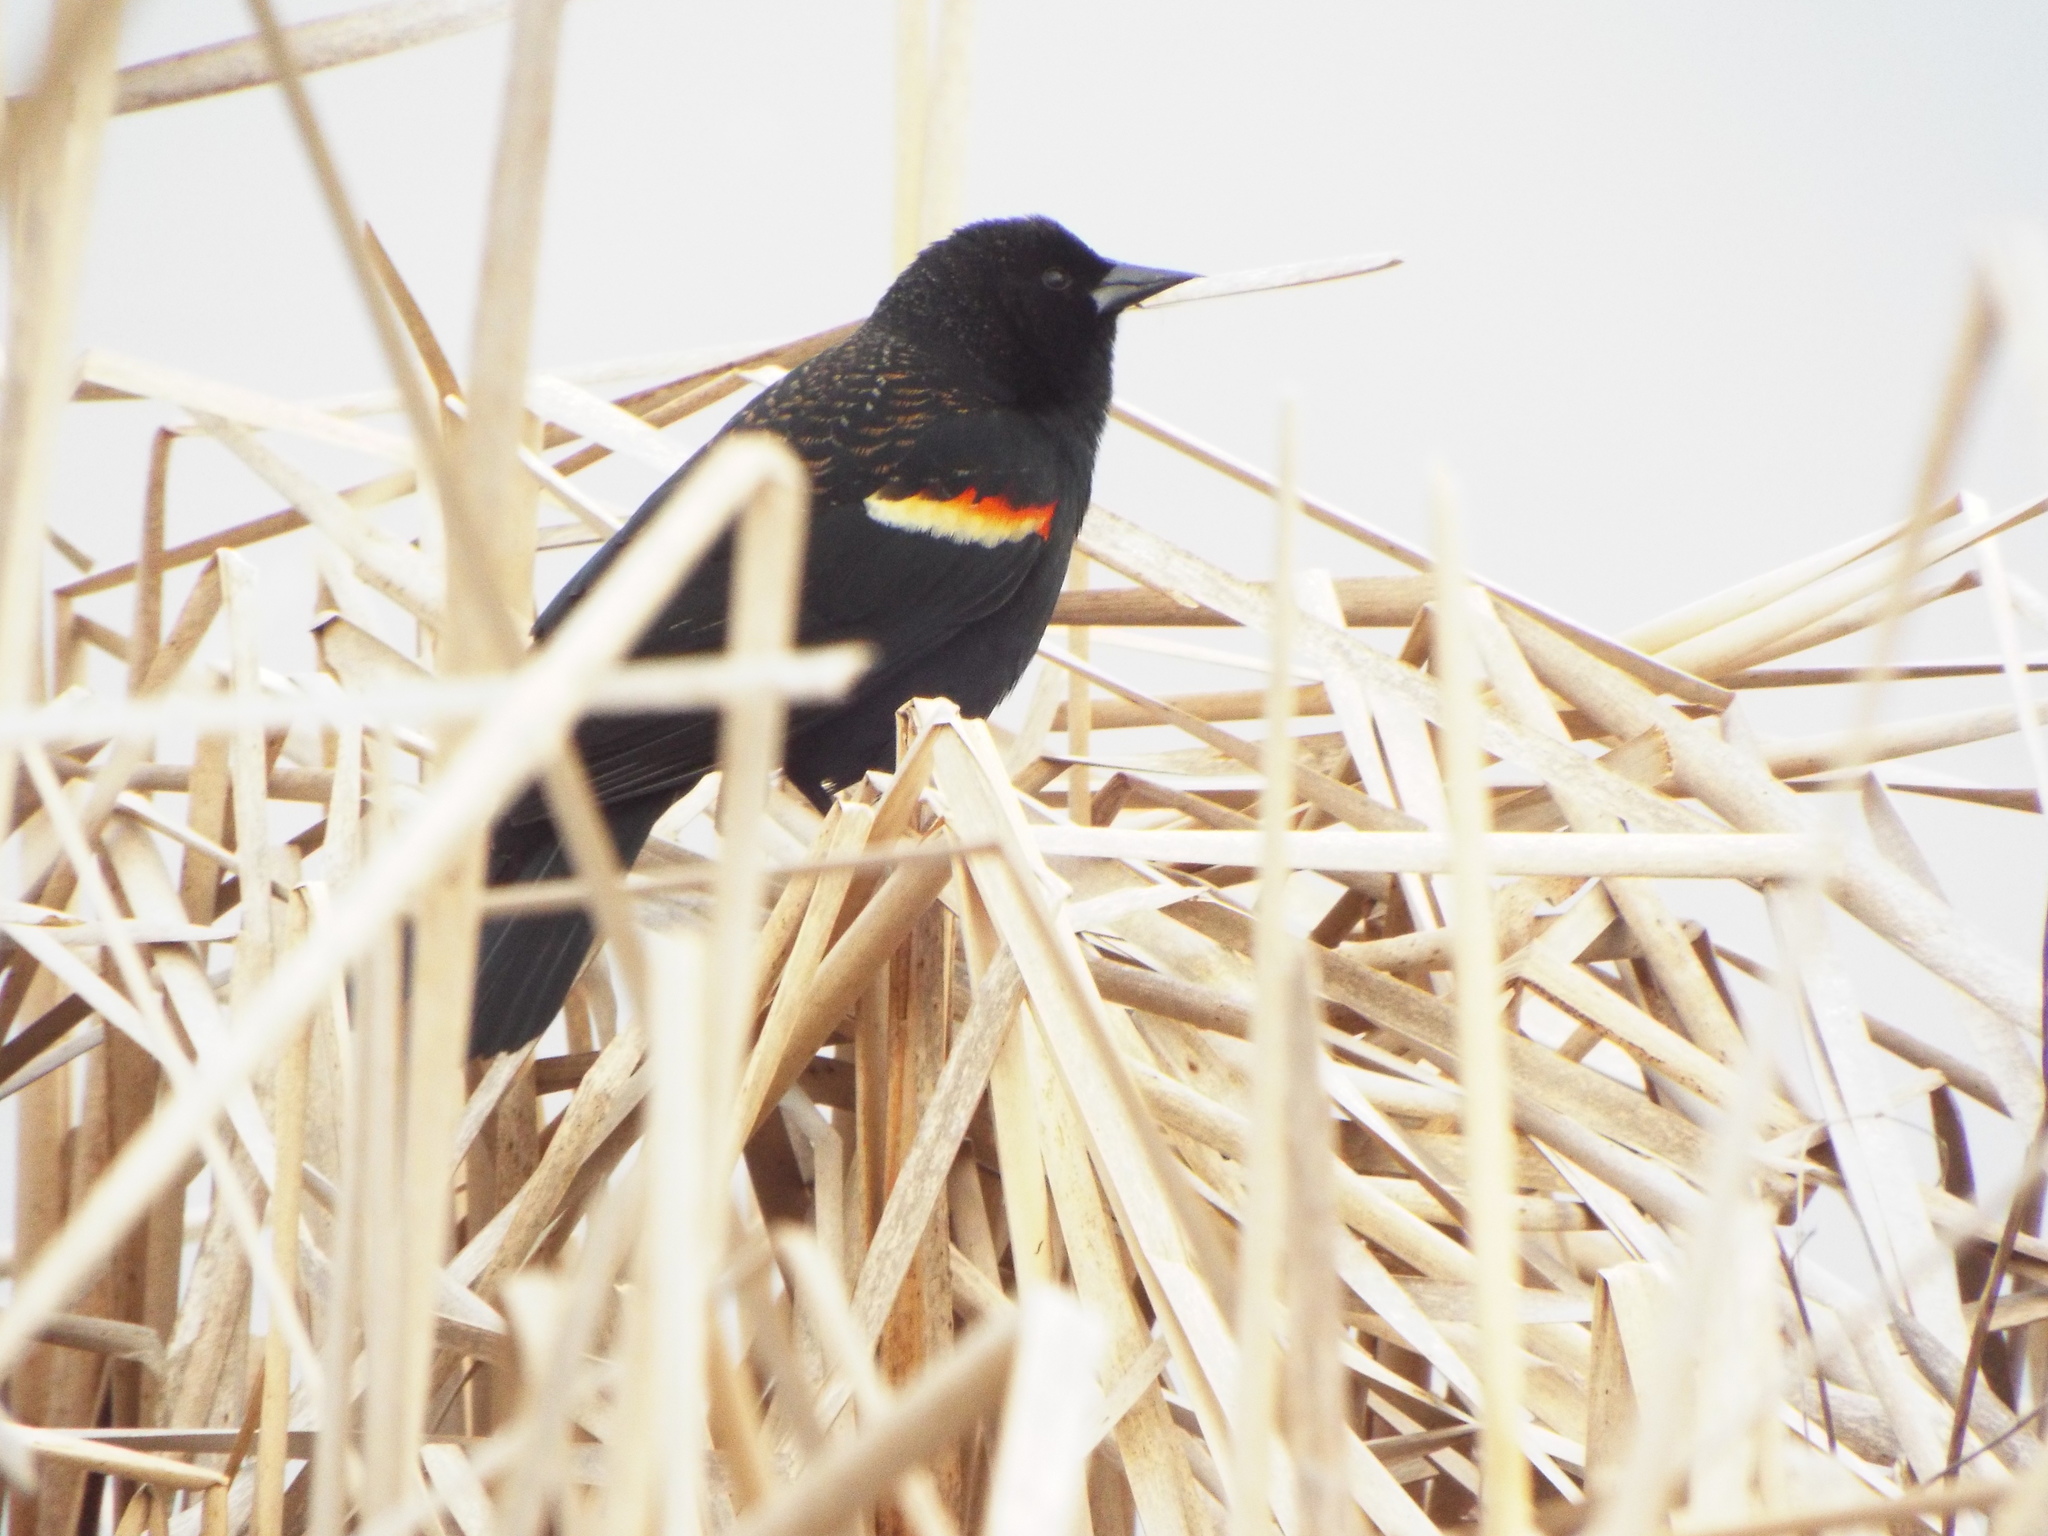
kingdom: Animalia
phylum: Chordata
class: Aves
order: Passeriformes
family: Icteridae
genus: Agelaius
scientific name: Agelaius phoeniceus
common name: Red-winged blackbird
